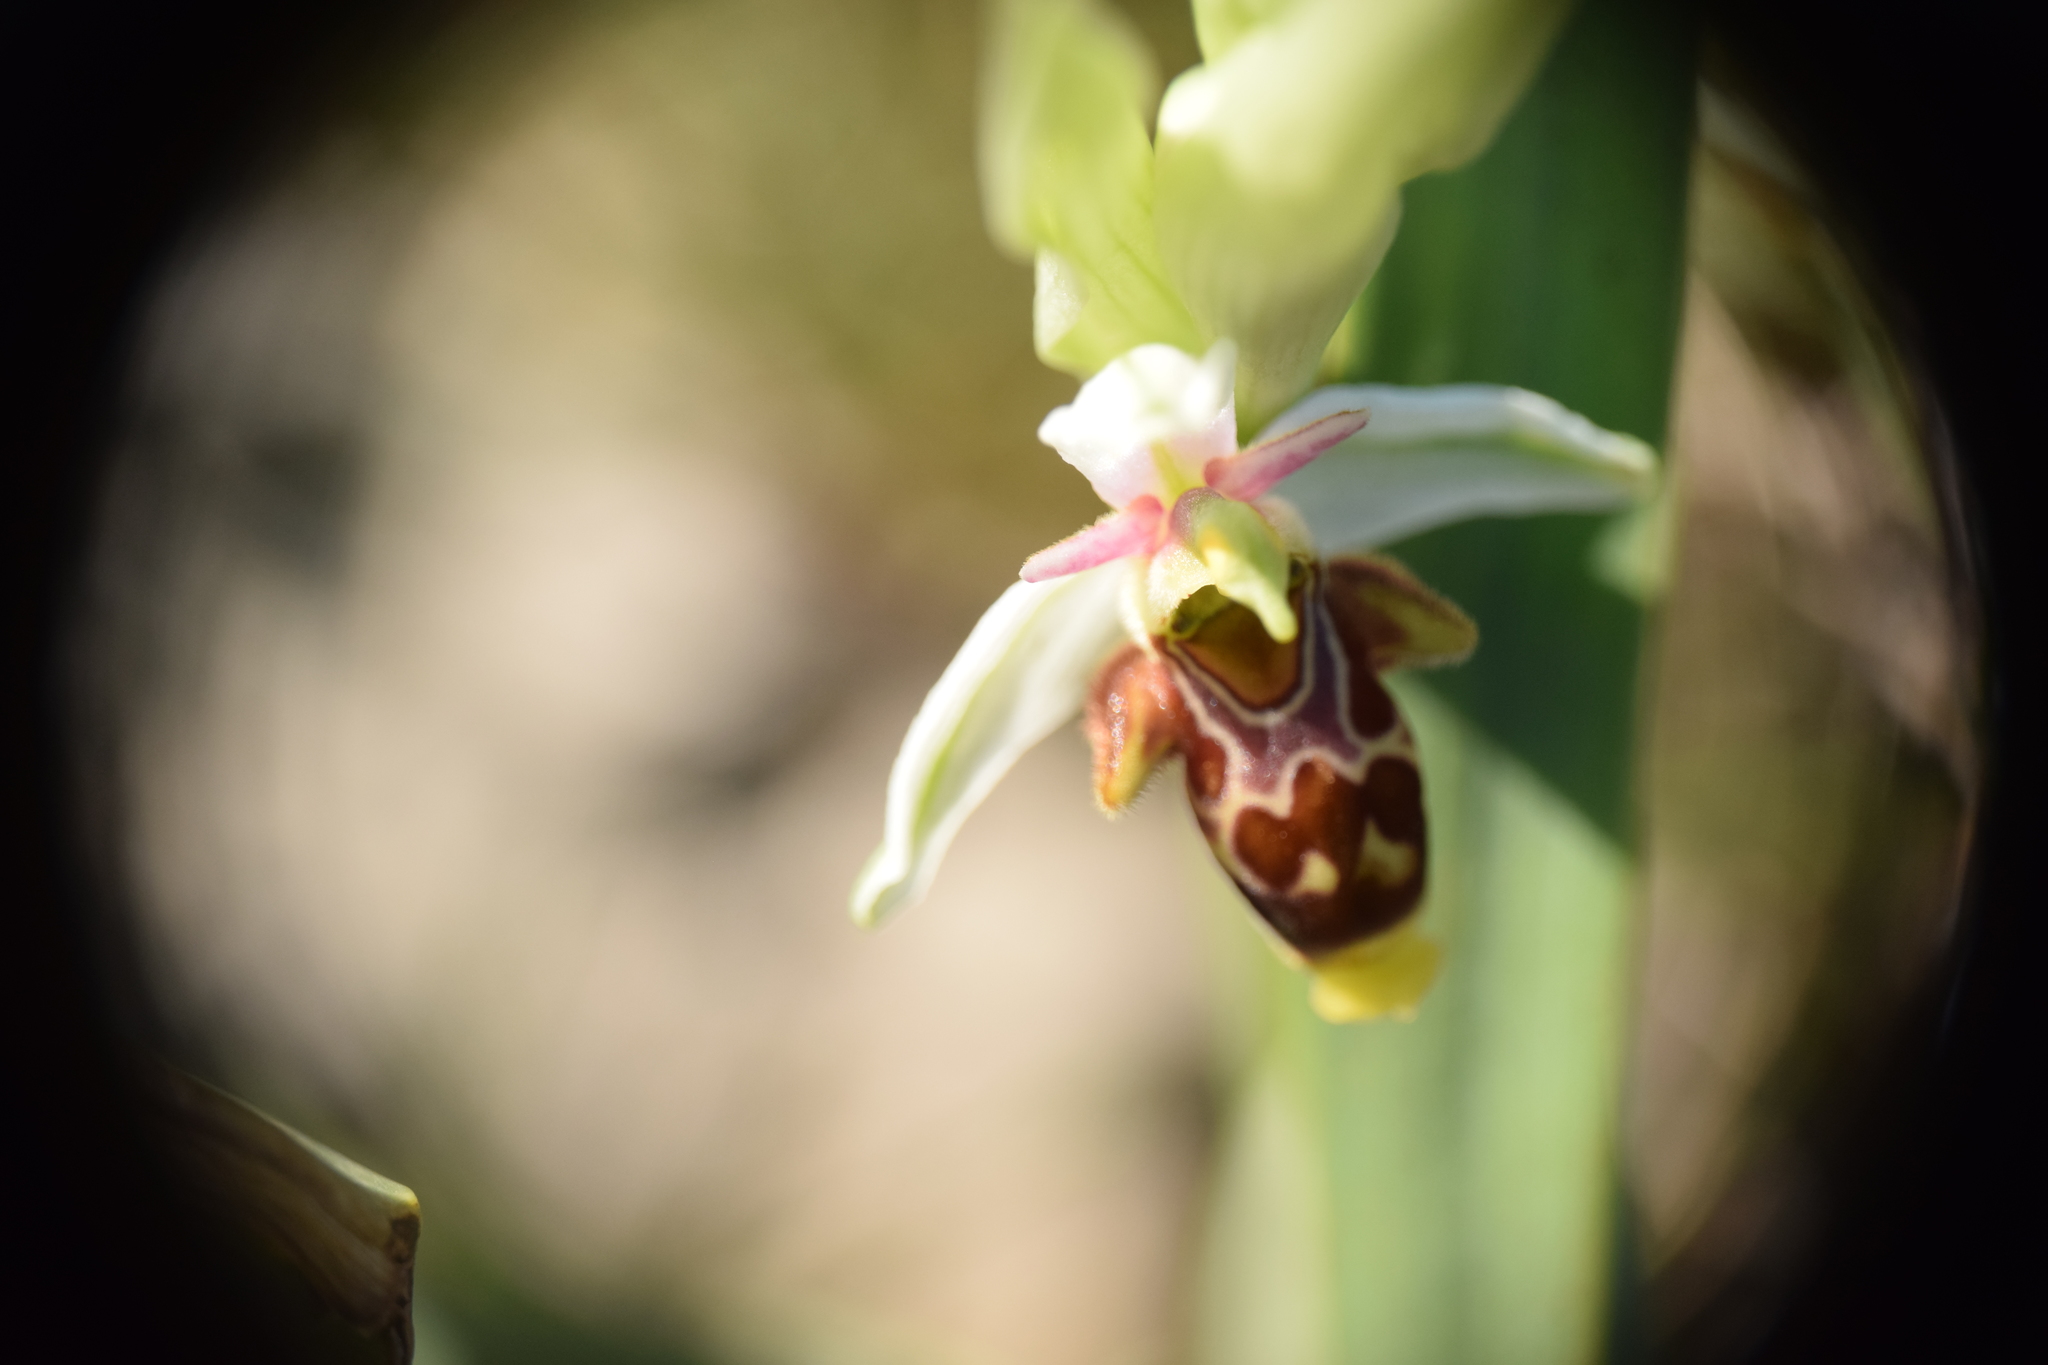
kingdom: Plantae
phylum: Tracheophyta
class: Liliopsida
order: Asparagales
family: Orchidaceae
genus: Ophrys
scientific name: Ophrys scolopax
